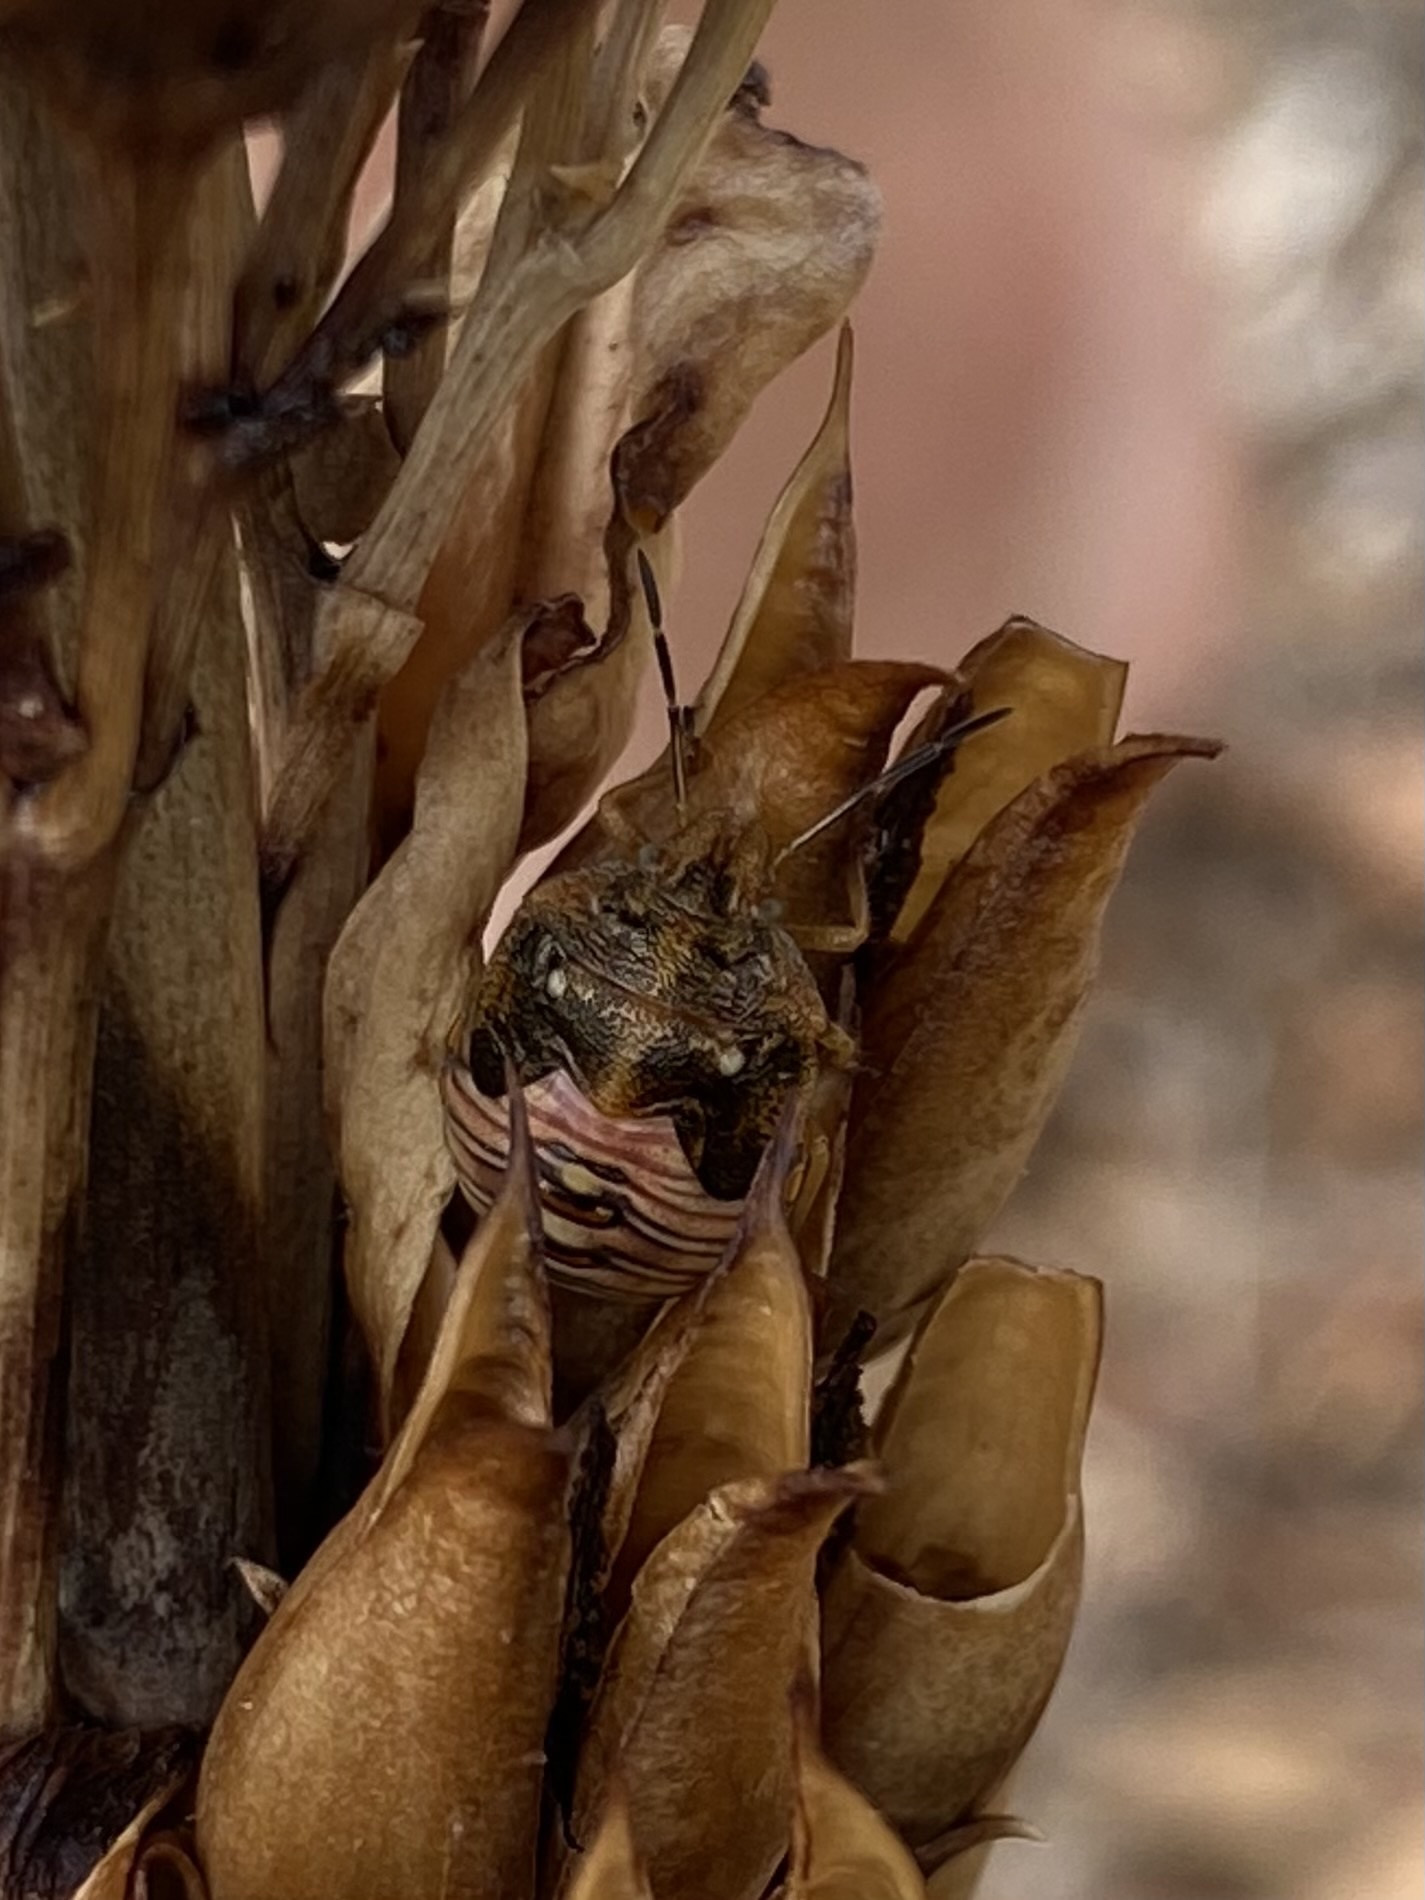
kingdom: Animalia
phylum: Arthropoda
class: Insecta
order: Hemiptera
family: Pentatomidae
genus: Thyanta
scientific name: Thyanta accerra
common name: Stink bug
